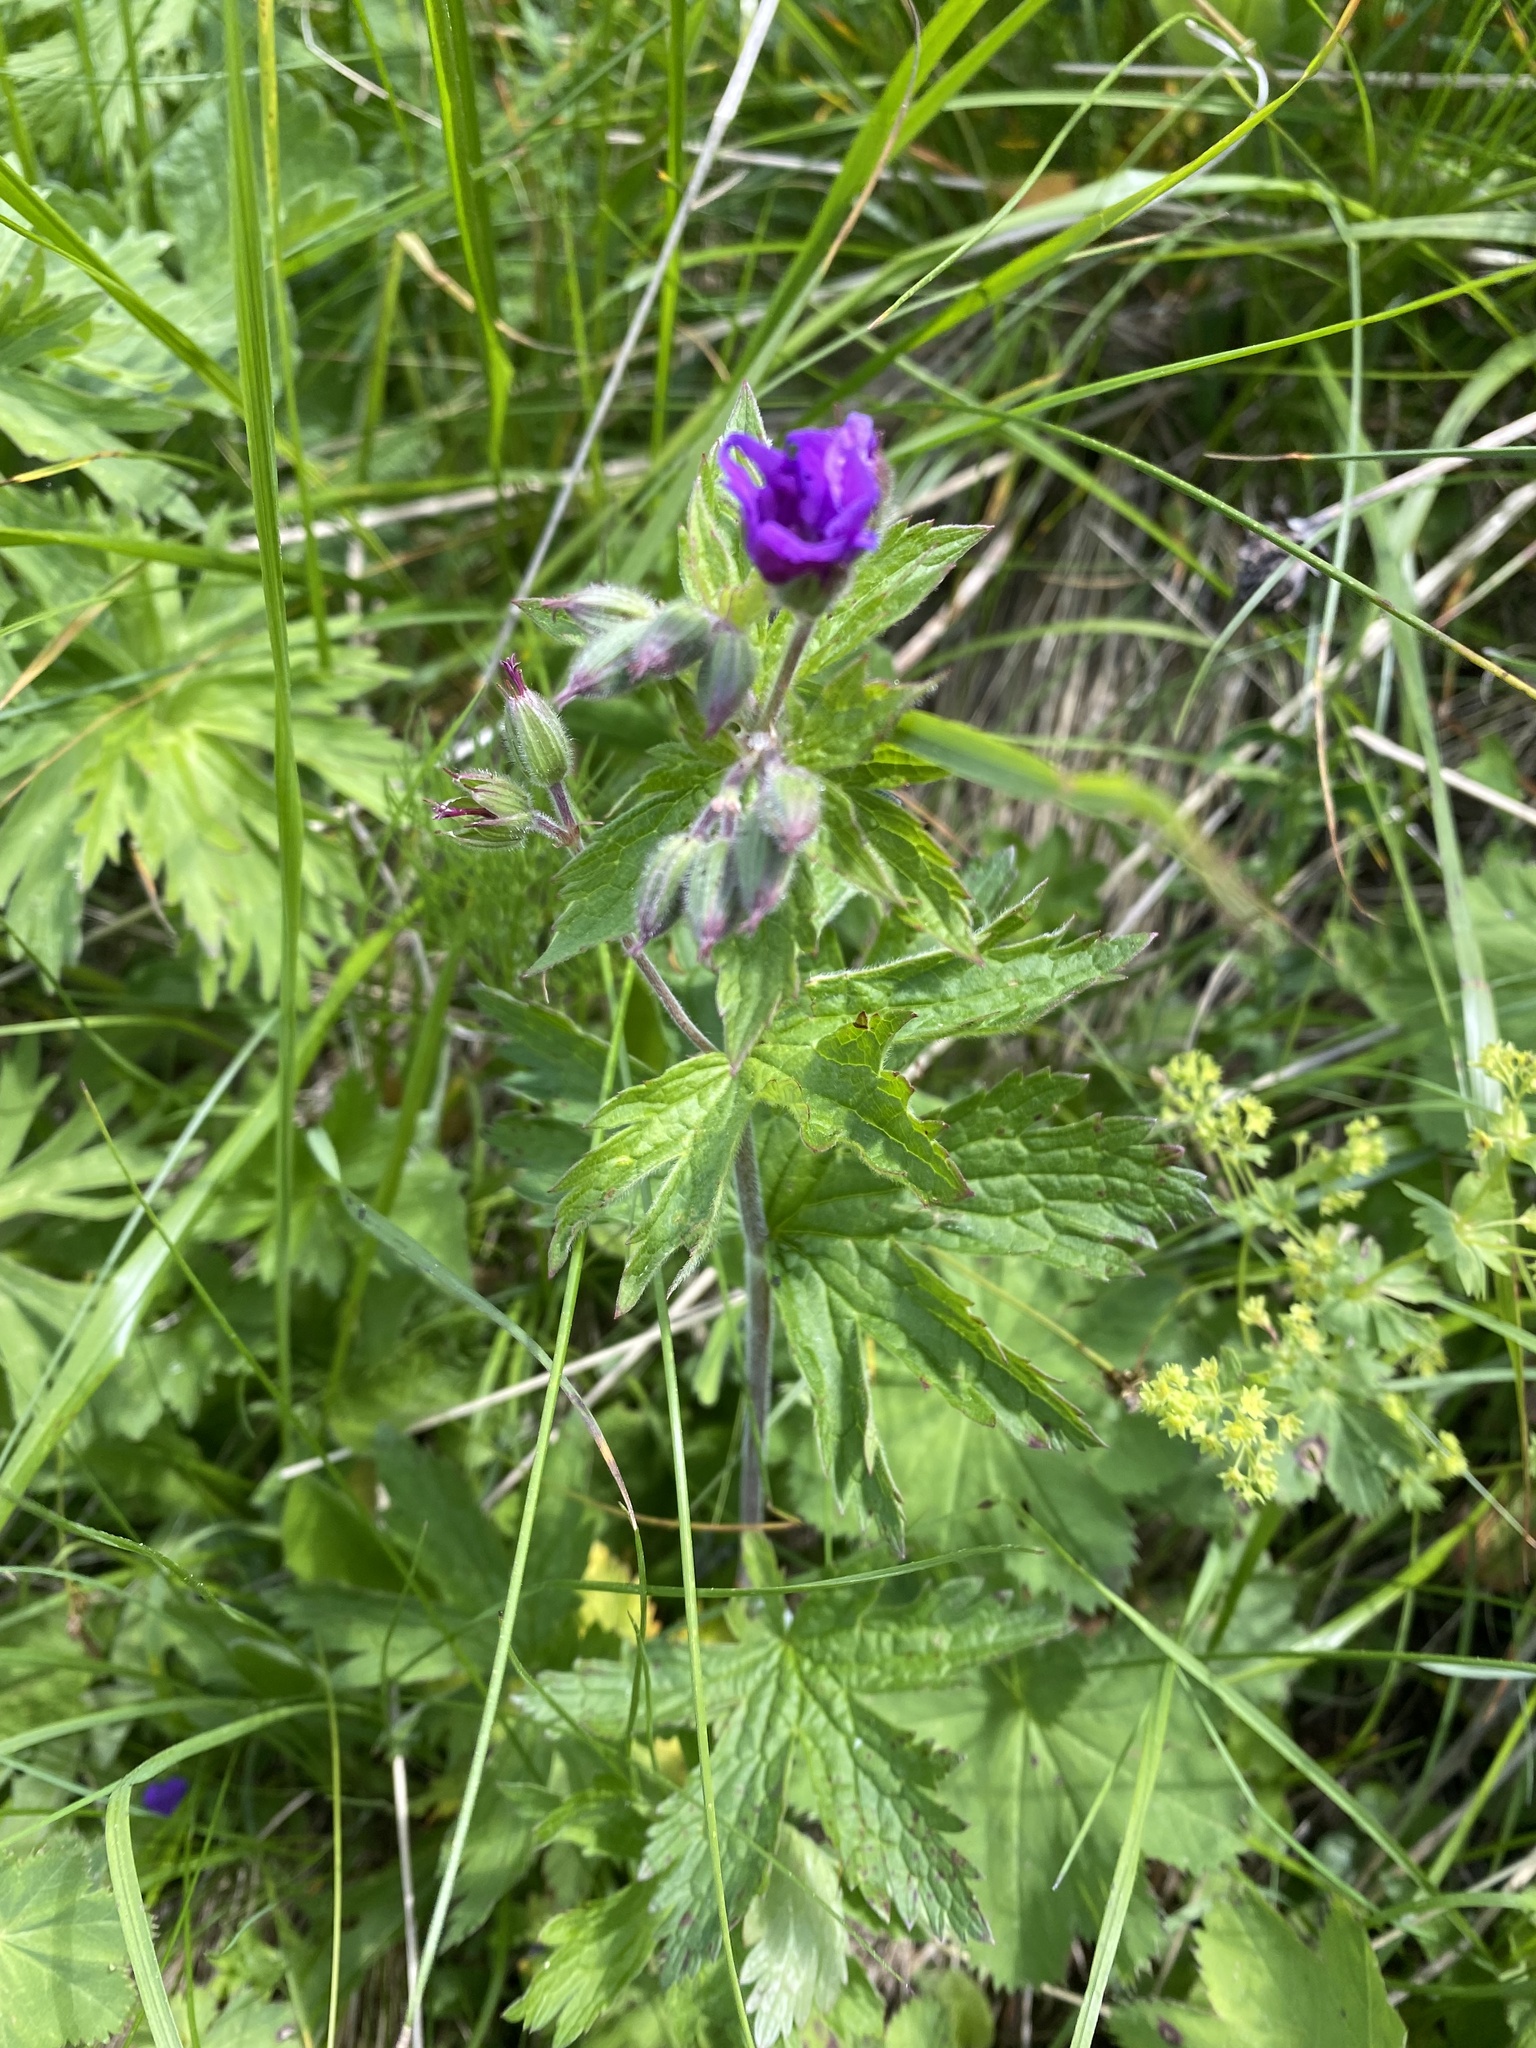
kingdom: Plantae
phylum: Tracheophyta
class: Magnoliopsida
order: Geraniales
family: Geraniaceae
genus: Geranium
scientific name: Geranium sylvaticum
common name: Wood crane's-bill
